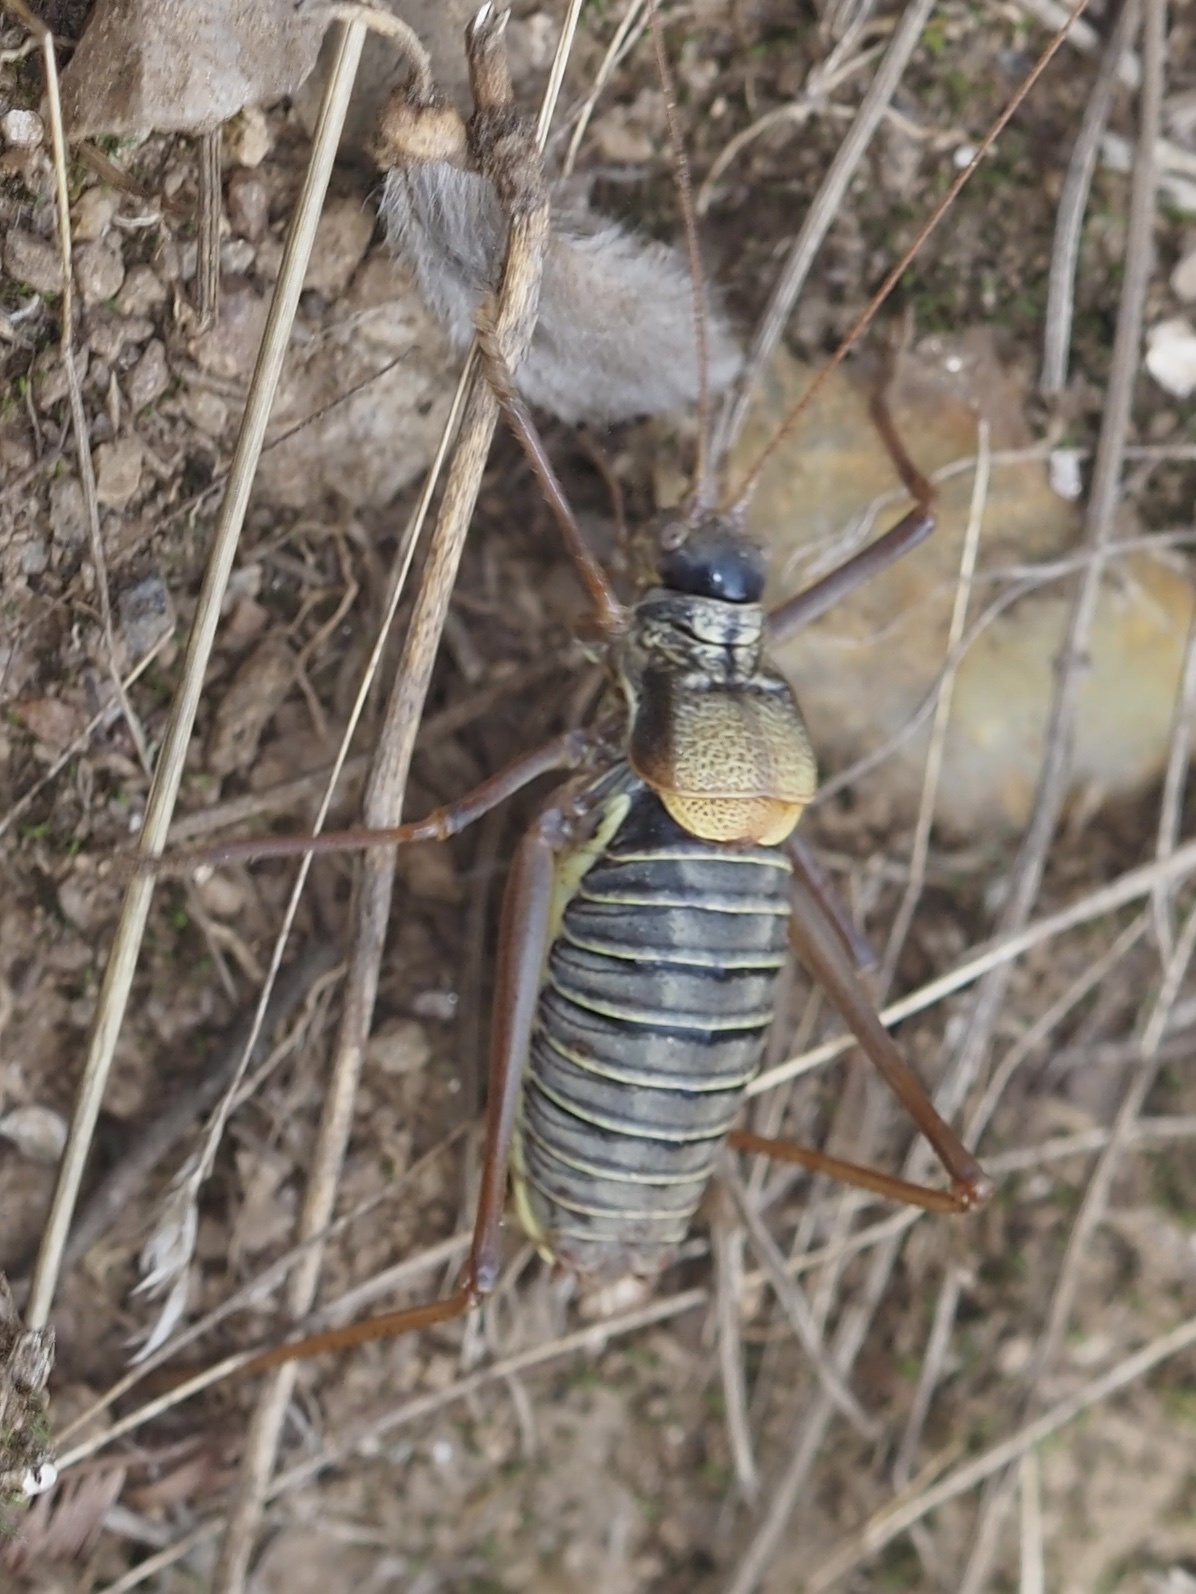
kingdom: Animalia
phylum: Arthropoda
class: Insecta
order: Orthoptera
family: Tettigoniidae
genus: Lluciapomaresius
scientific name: Lluciapomaresius asturiensis
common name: Asturian saddle bush-cricket
